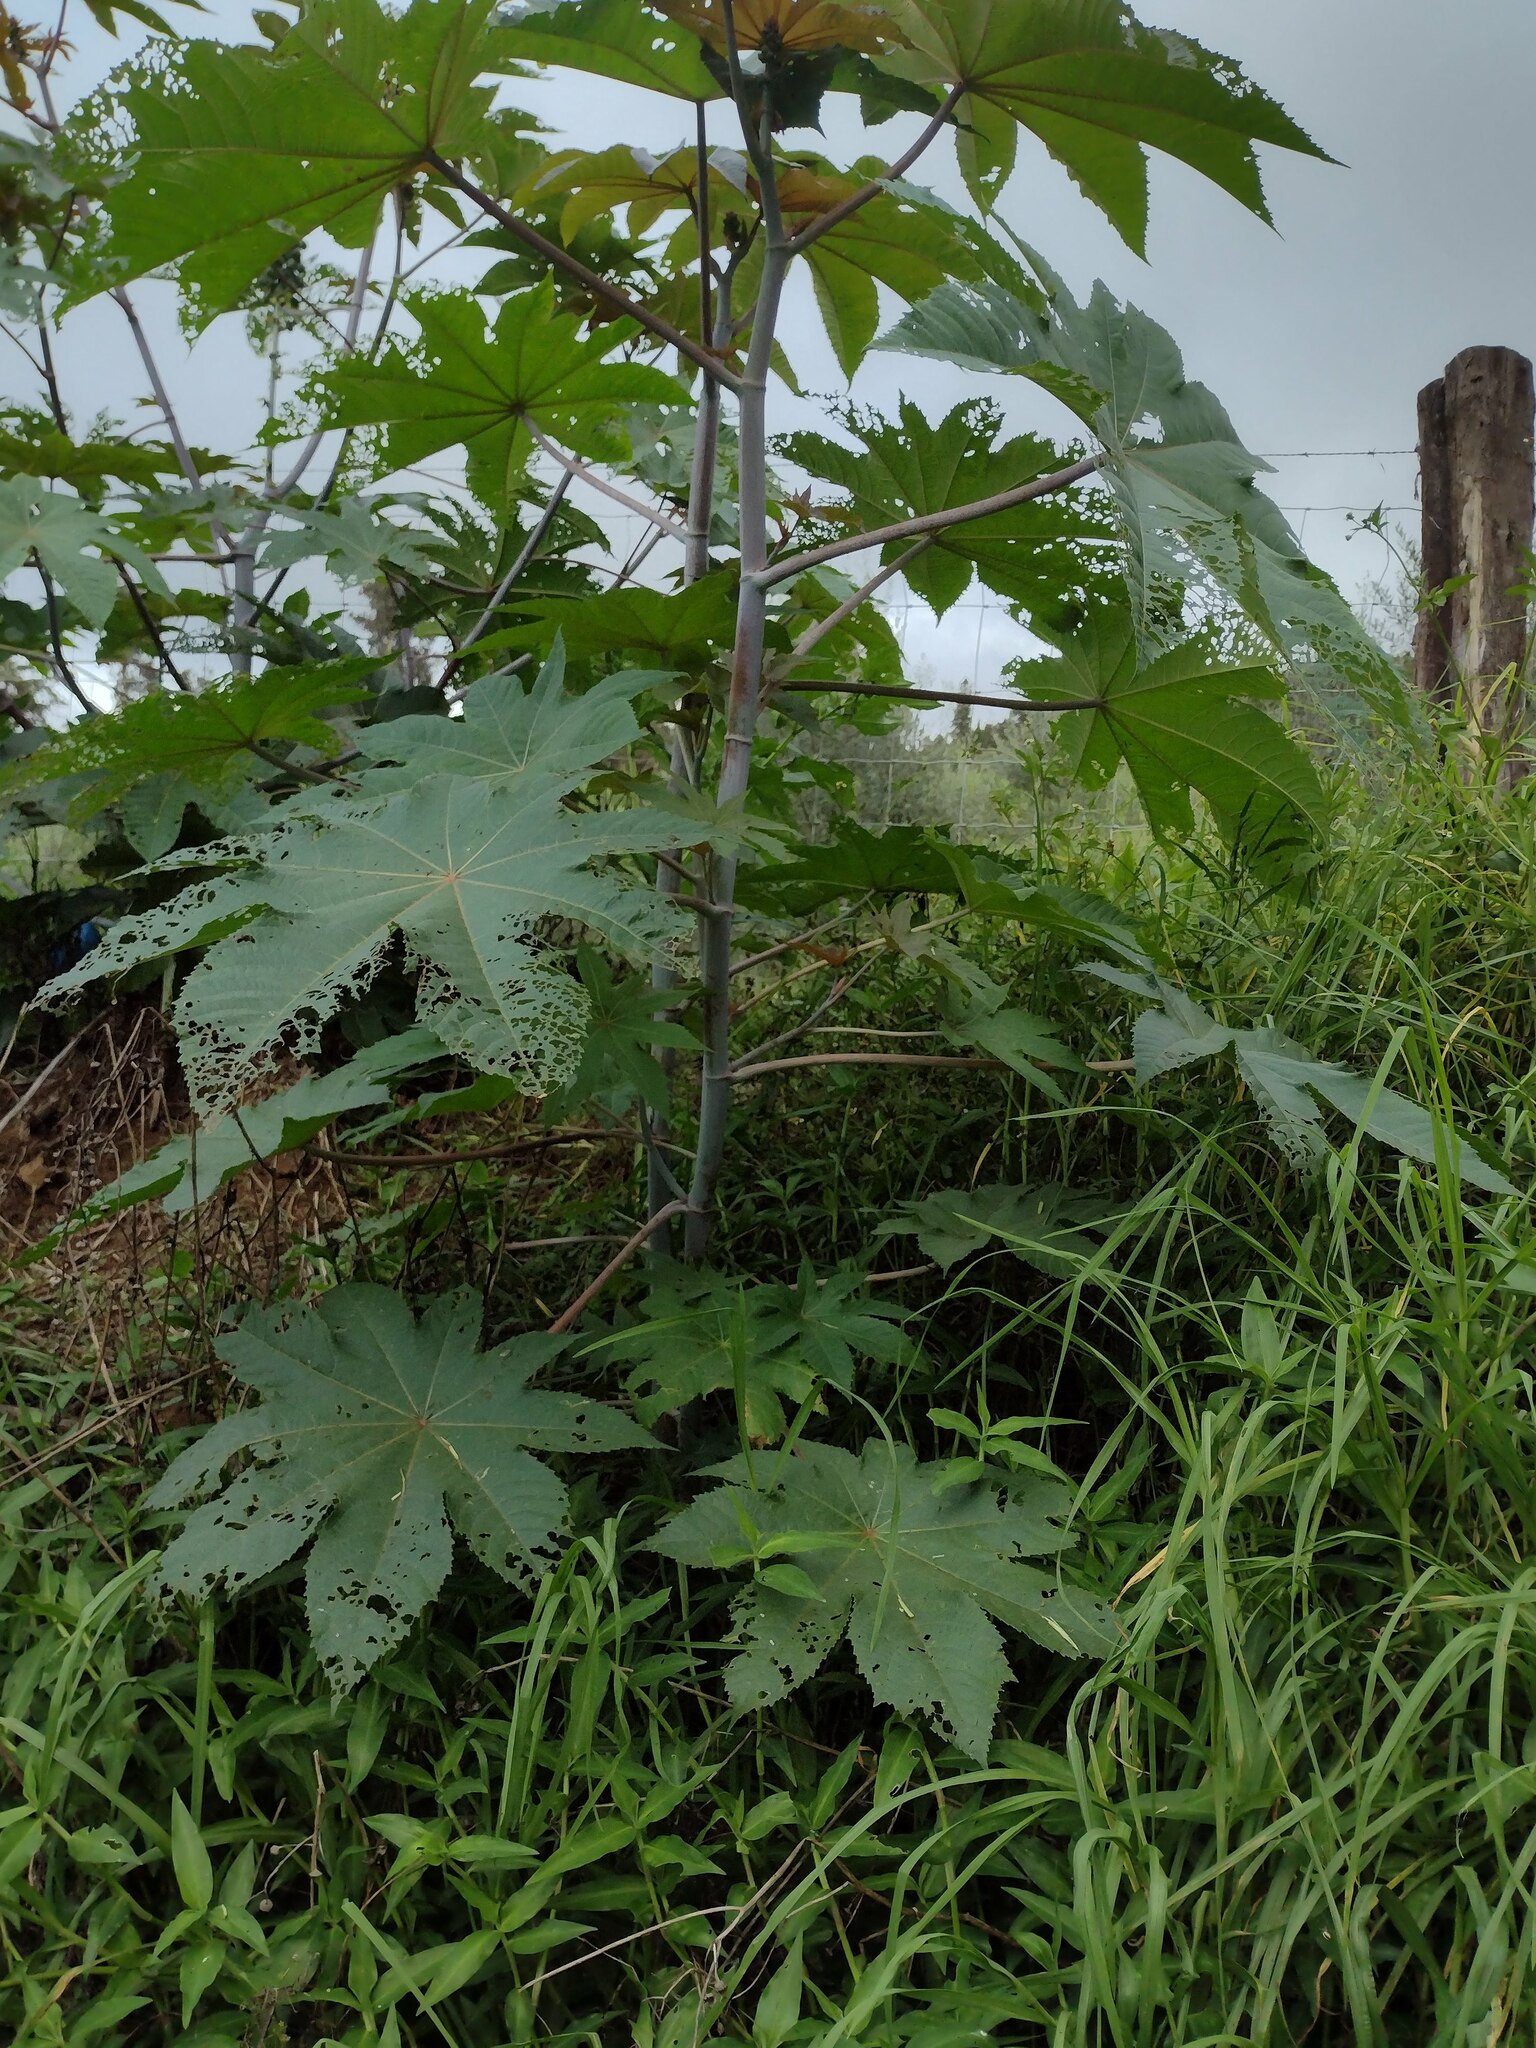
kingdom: Plantae
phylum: Tracheophyta
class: Magnoliopsida
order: Malpighiales
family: Euphorbiaceae
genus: Ricinus
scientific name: Ricinus communis
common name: Castor-oil-plant
